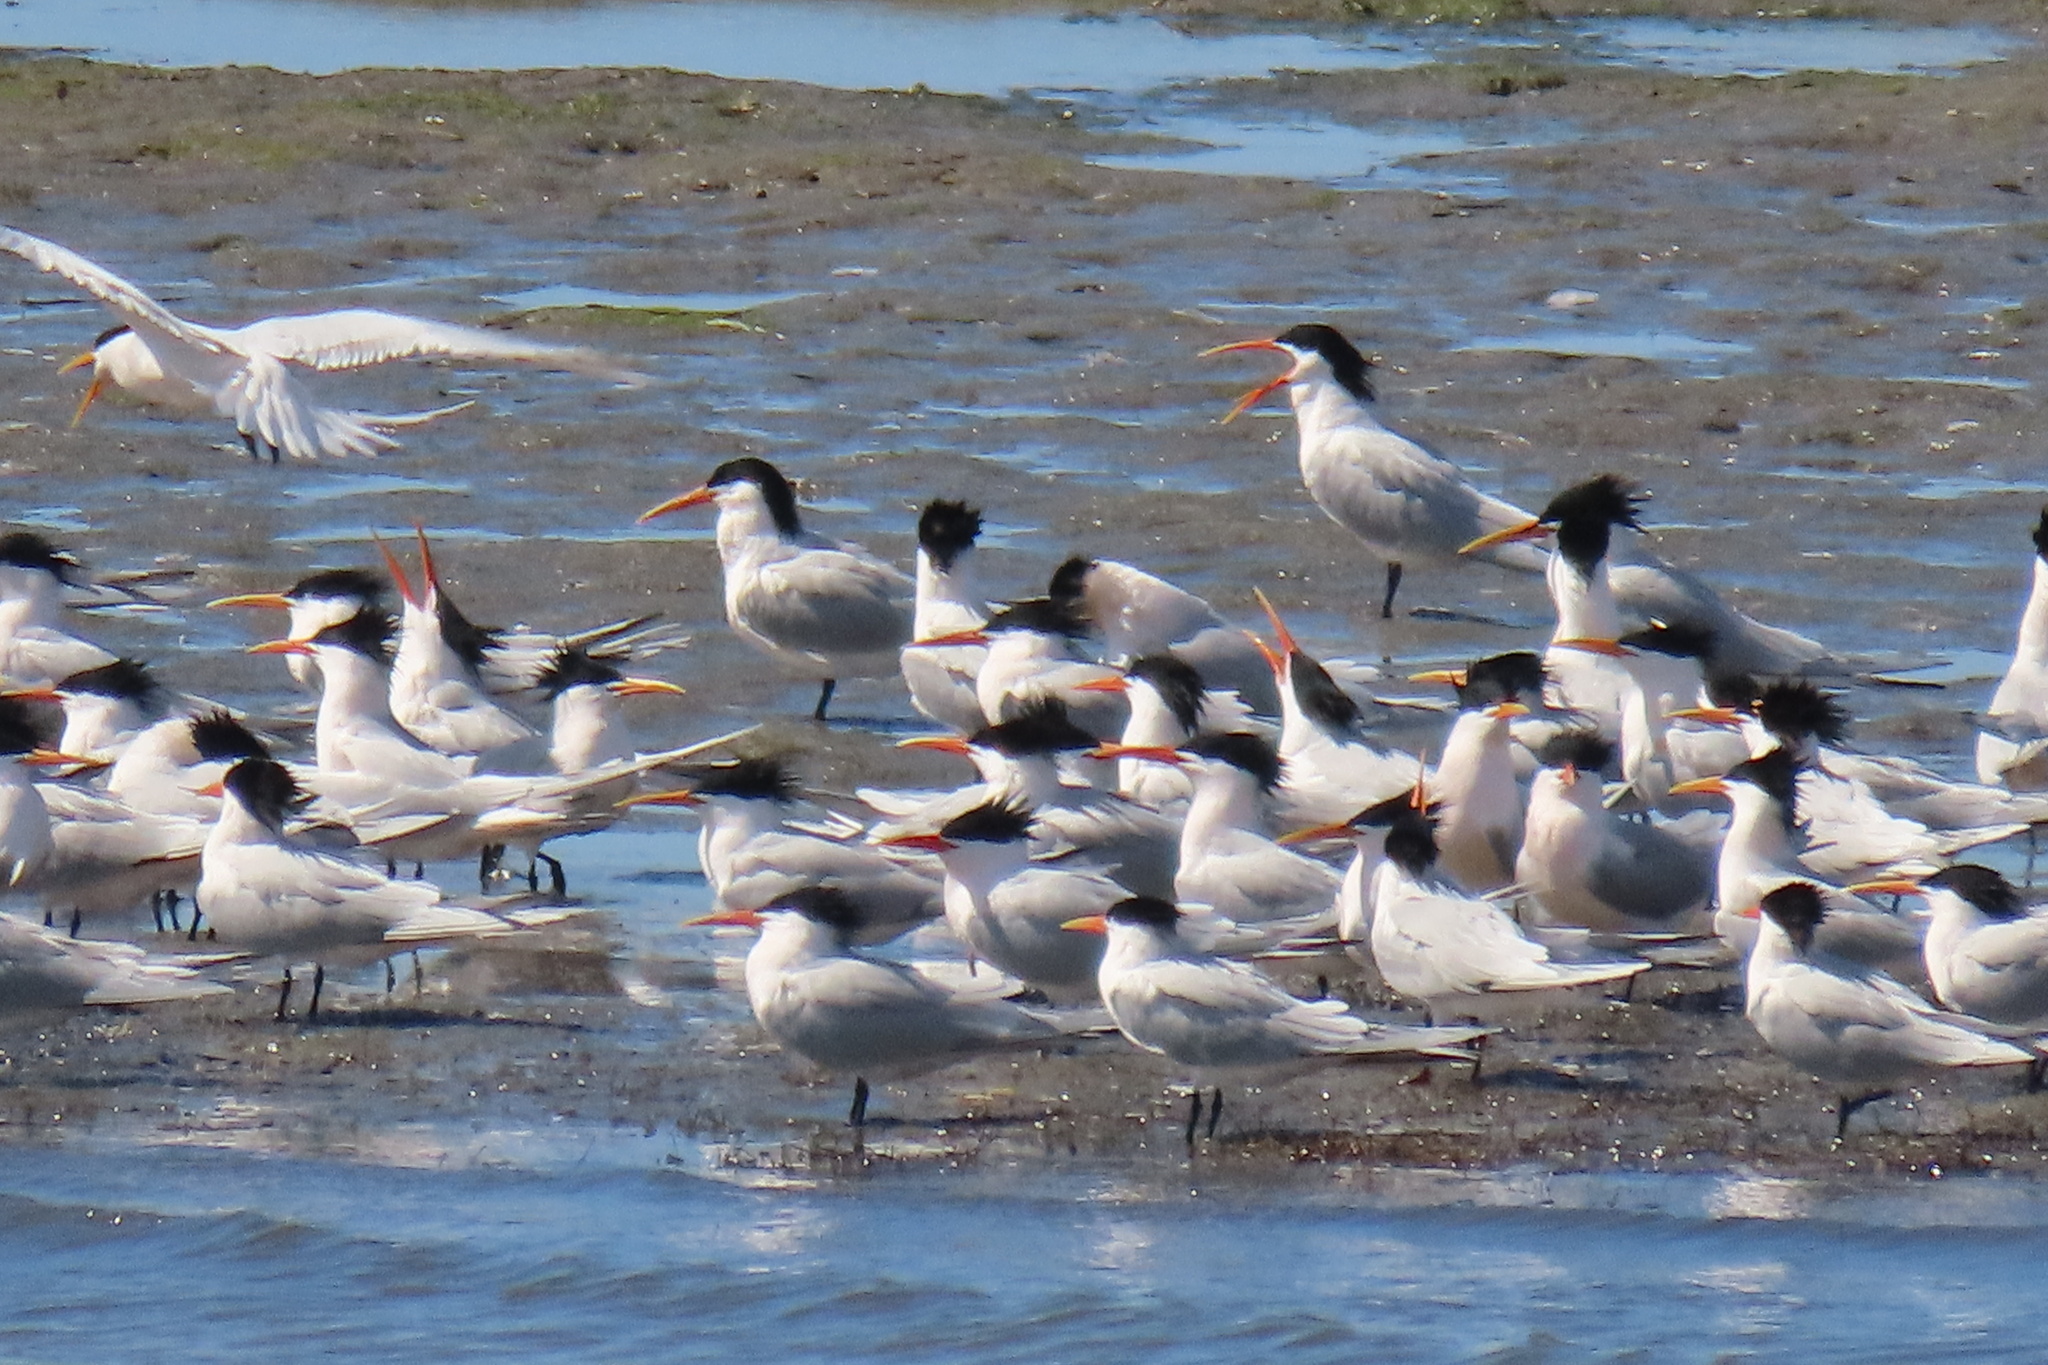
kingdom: Animalia
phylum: Chordata
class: Aves
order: Charadriiformes
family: Laridae
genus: Thalasseus
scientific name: Thalasseus elegans
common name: Elegant tern
